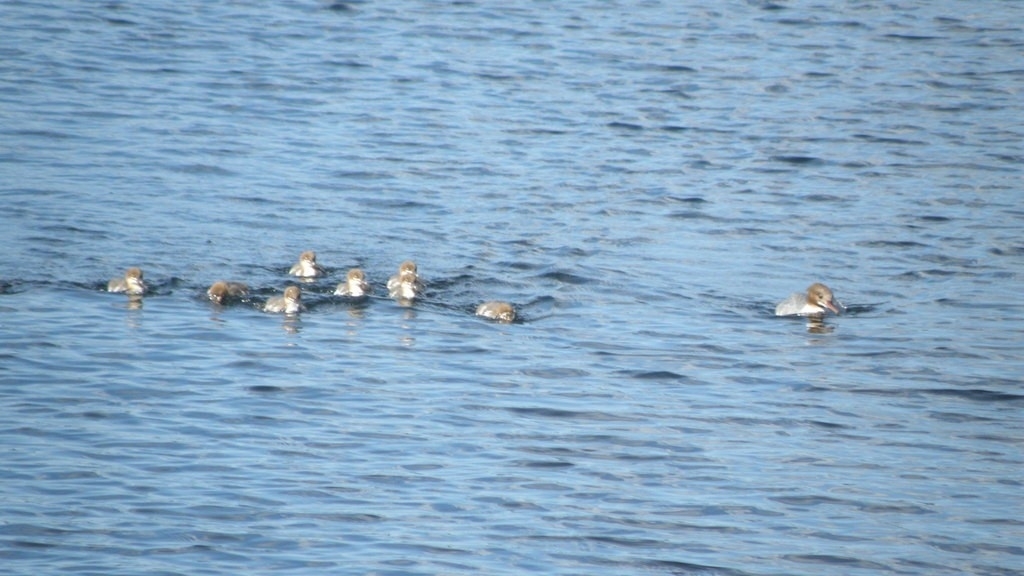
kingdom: Animalia
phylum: Chordata
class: Aves
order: Anseriformes
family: Anatidae
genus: Mergus
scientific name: Mergus merganser
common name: Common merganser
